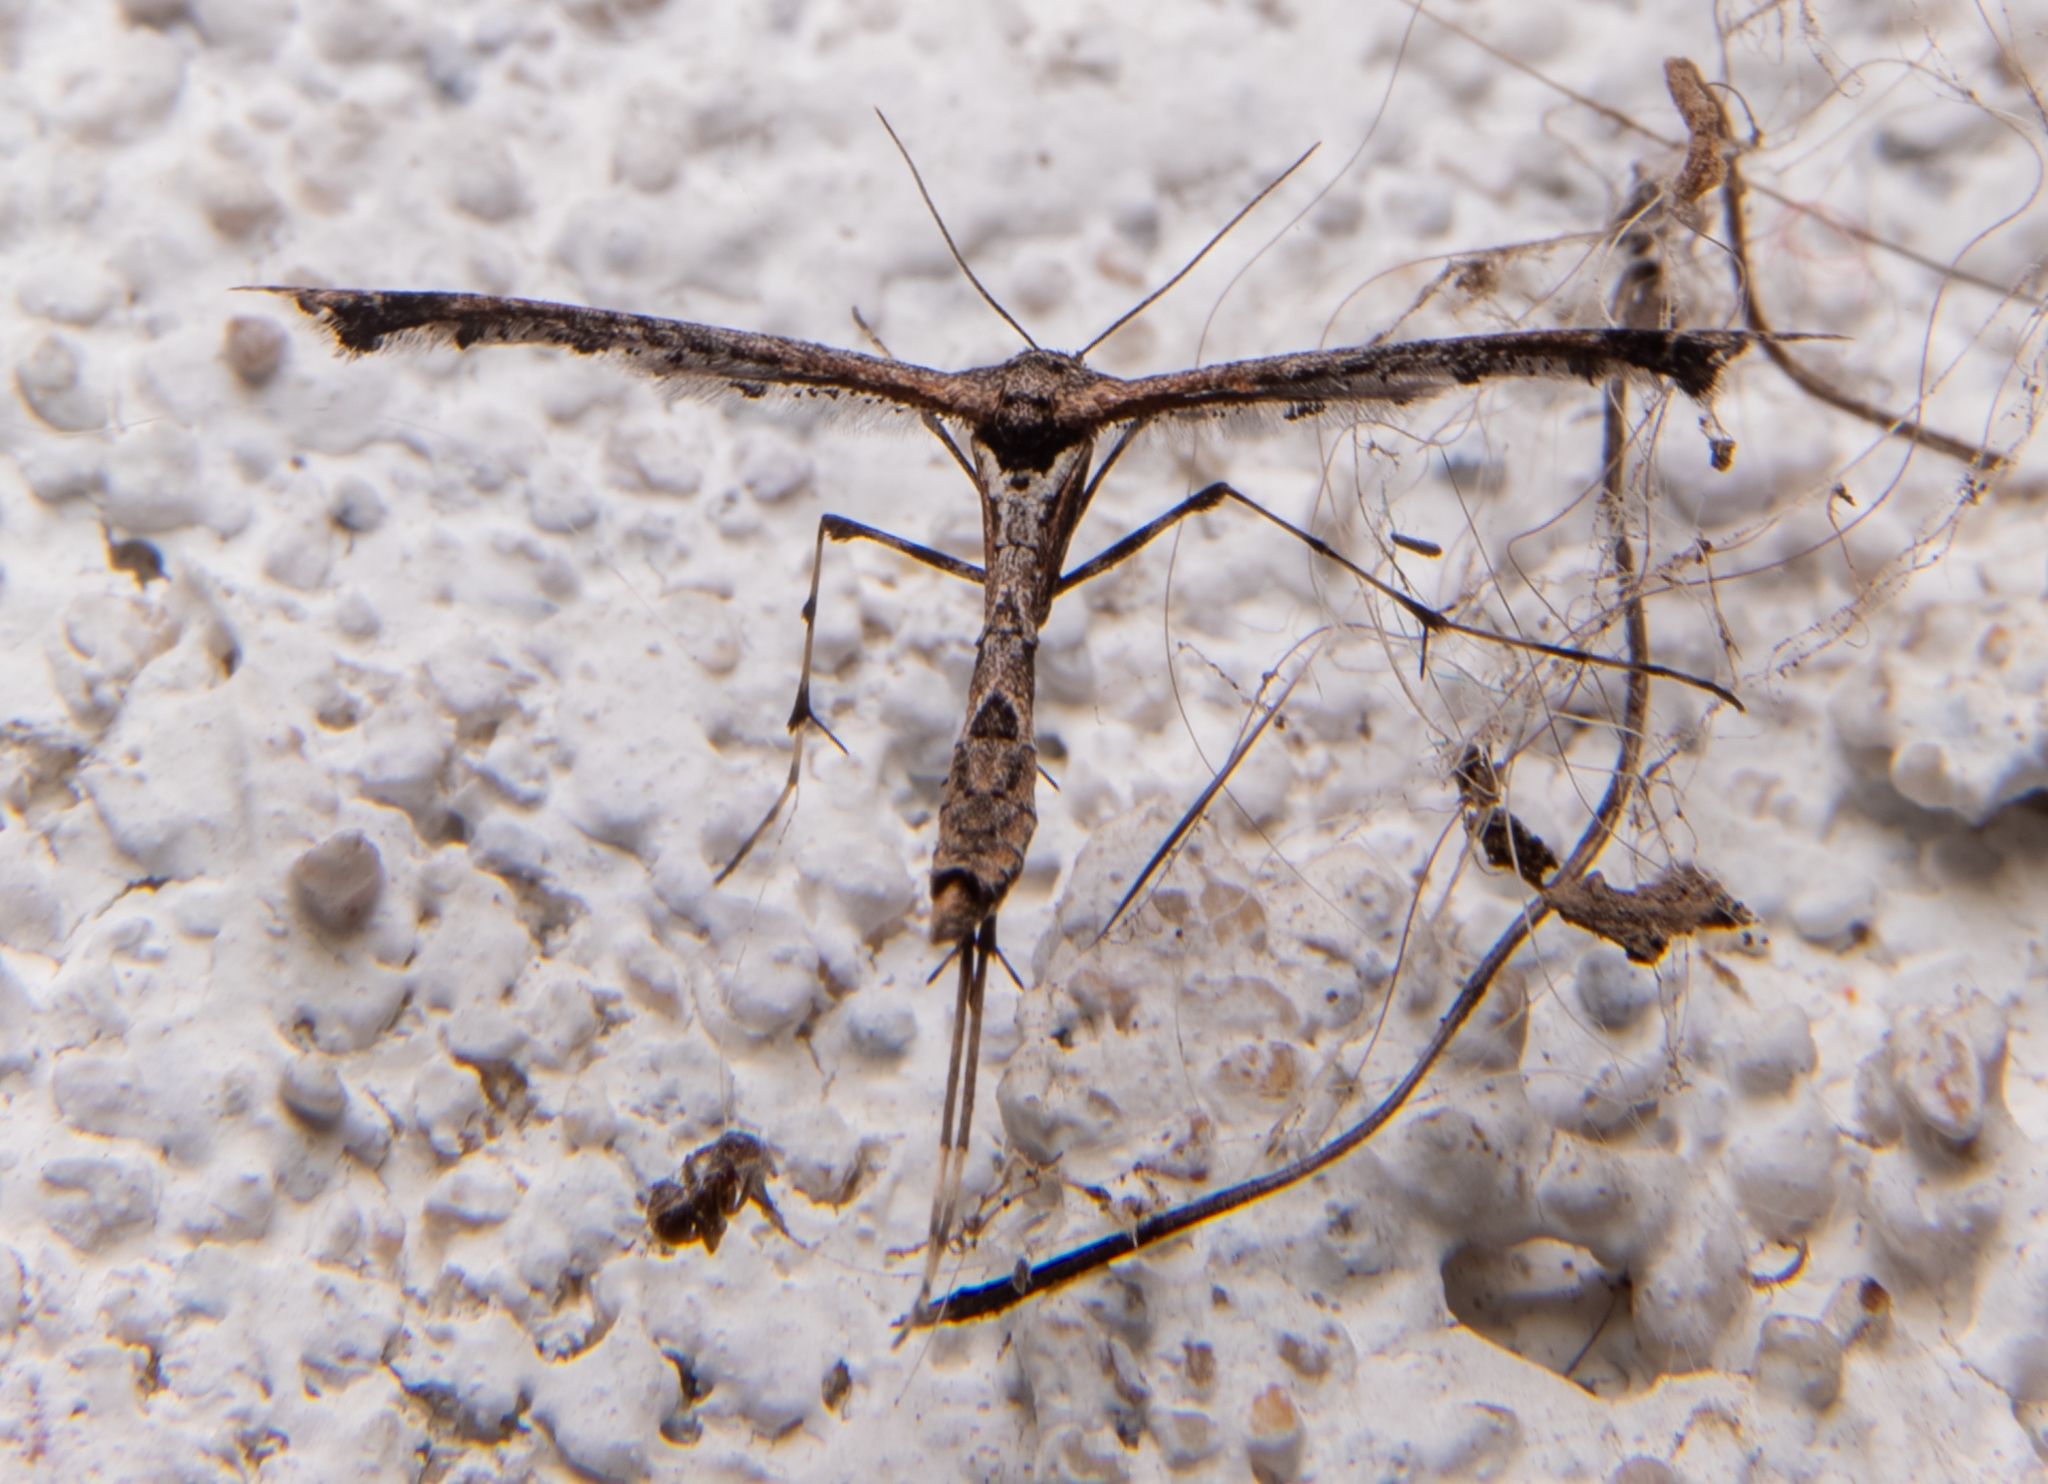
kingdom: Animalia
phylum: Arthropoda
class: Insecta
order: Lepidoptera
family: Pterophoridae
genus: Anstenoptilia
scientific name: Anstenoptilia marmarodactyla
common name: Moth
